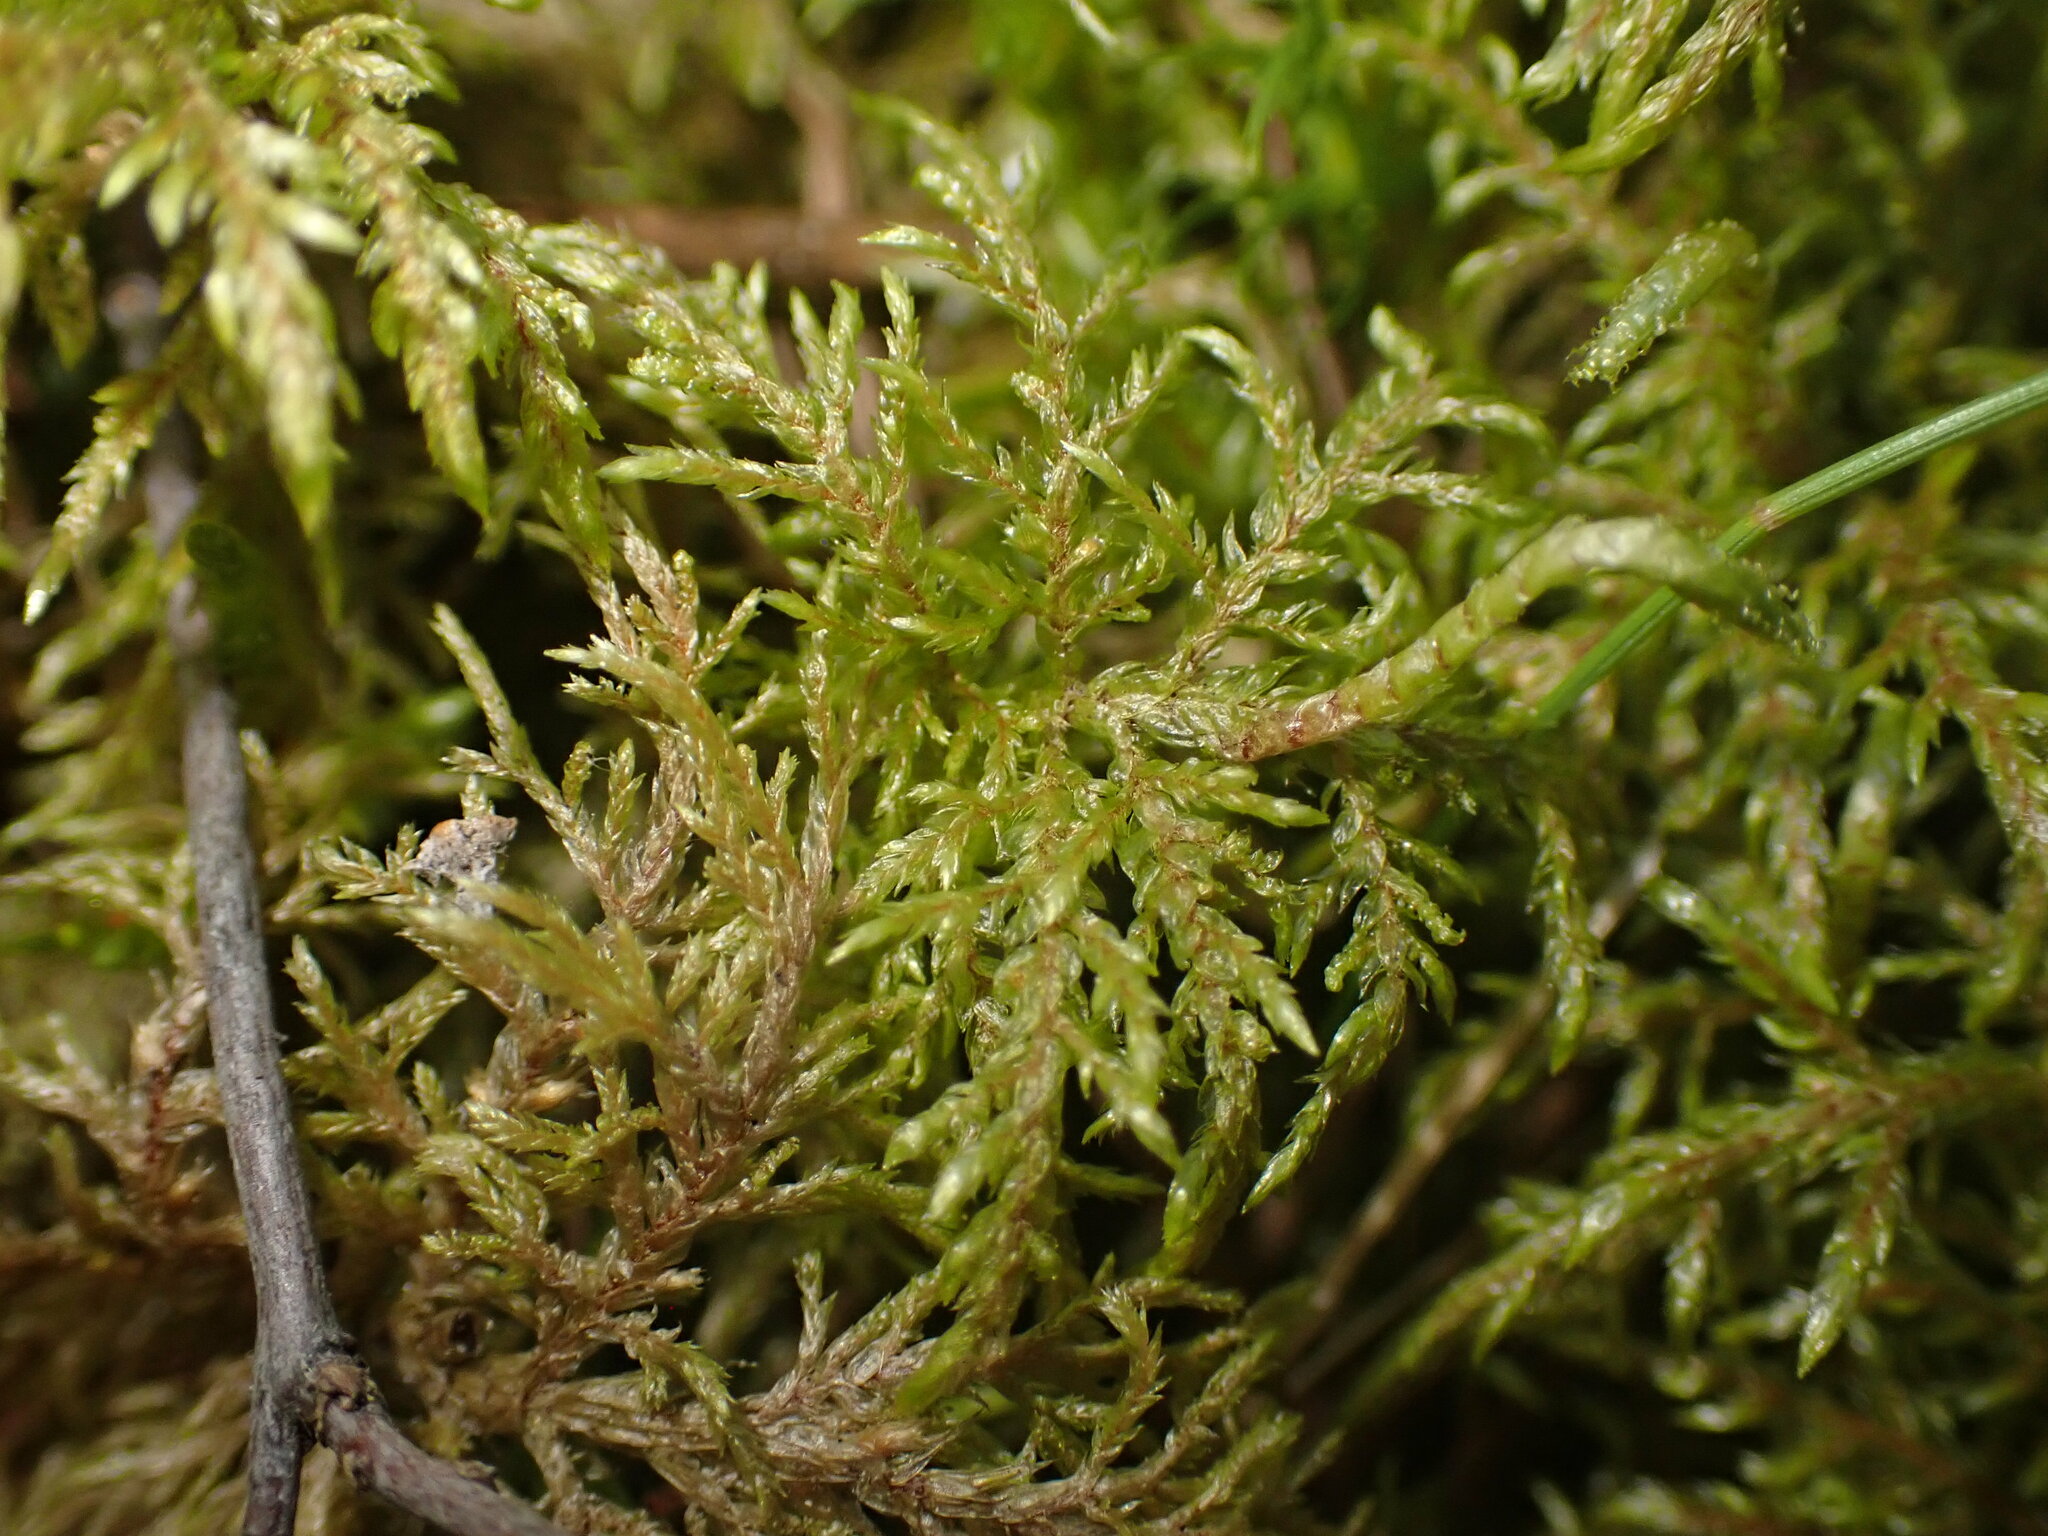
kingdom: Plantae
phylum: Bryophyta
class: Bryopsida
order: Hypnales
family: Hylocomiaceae
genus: Hylocomium
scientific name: Hylocomium splendens
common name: Stairstep moss
